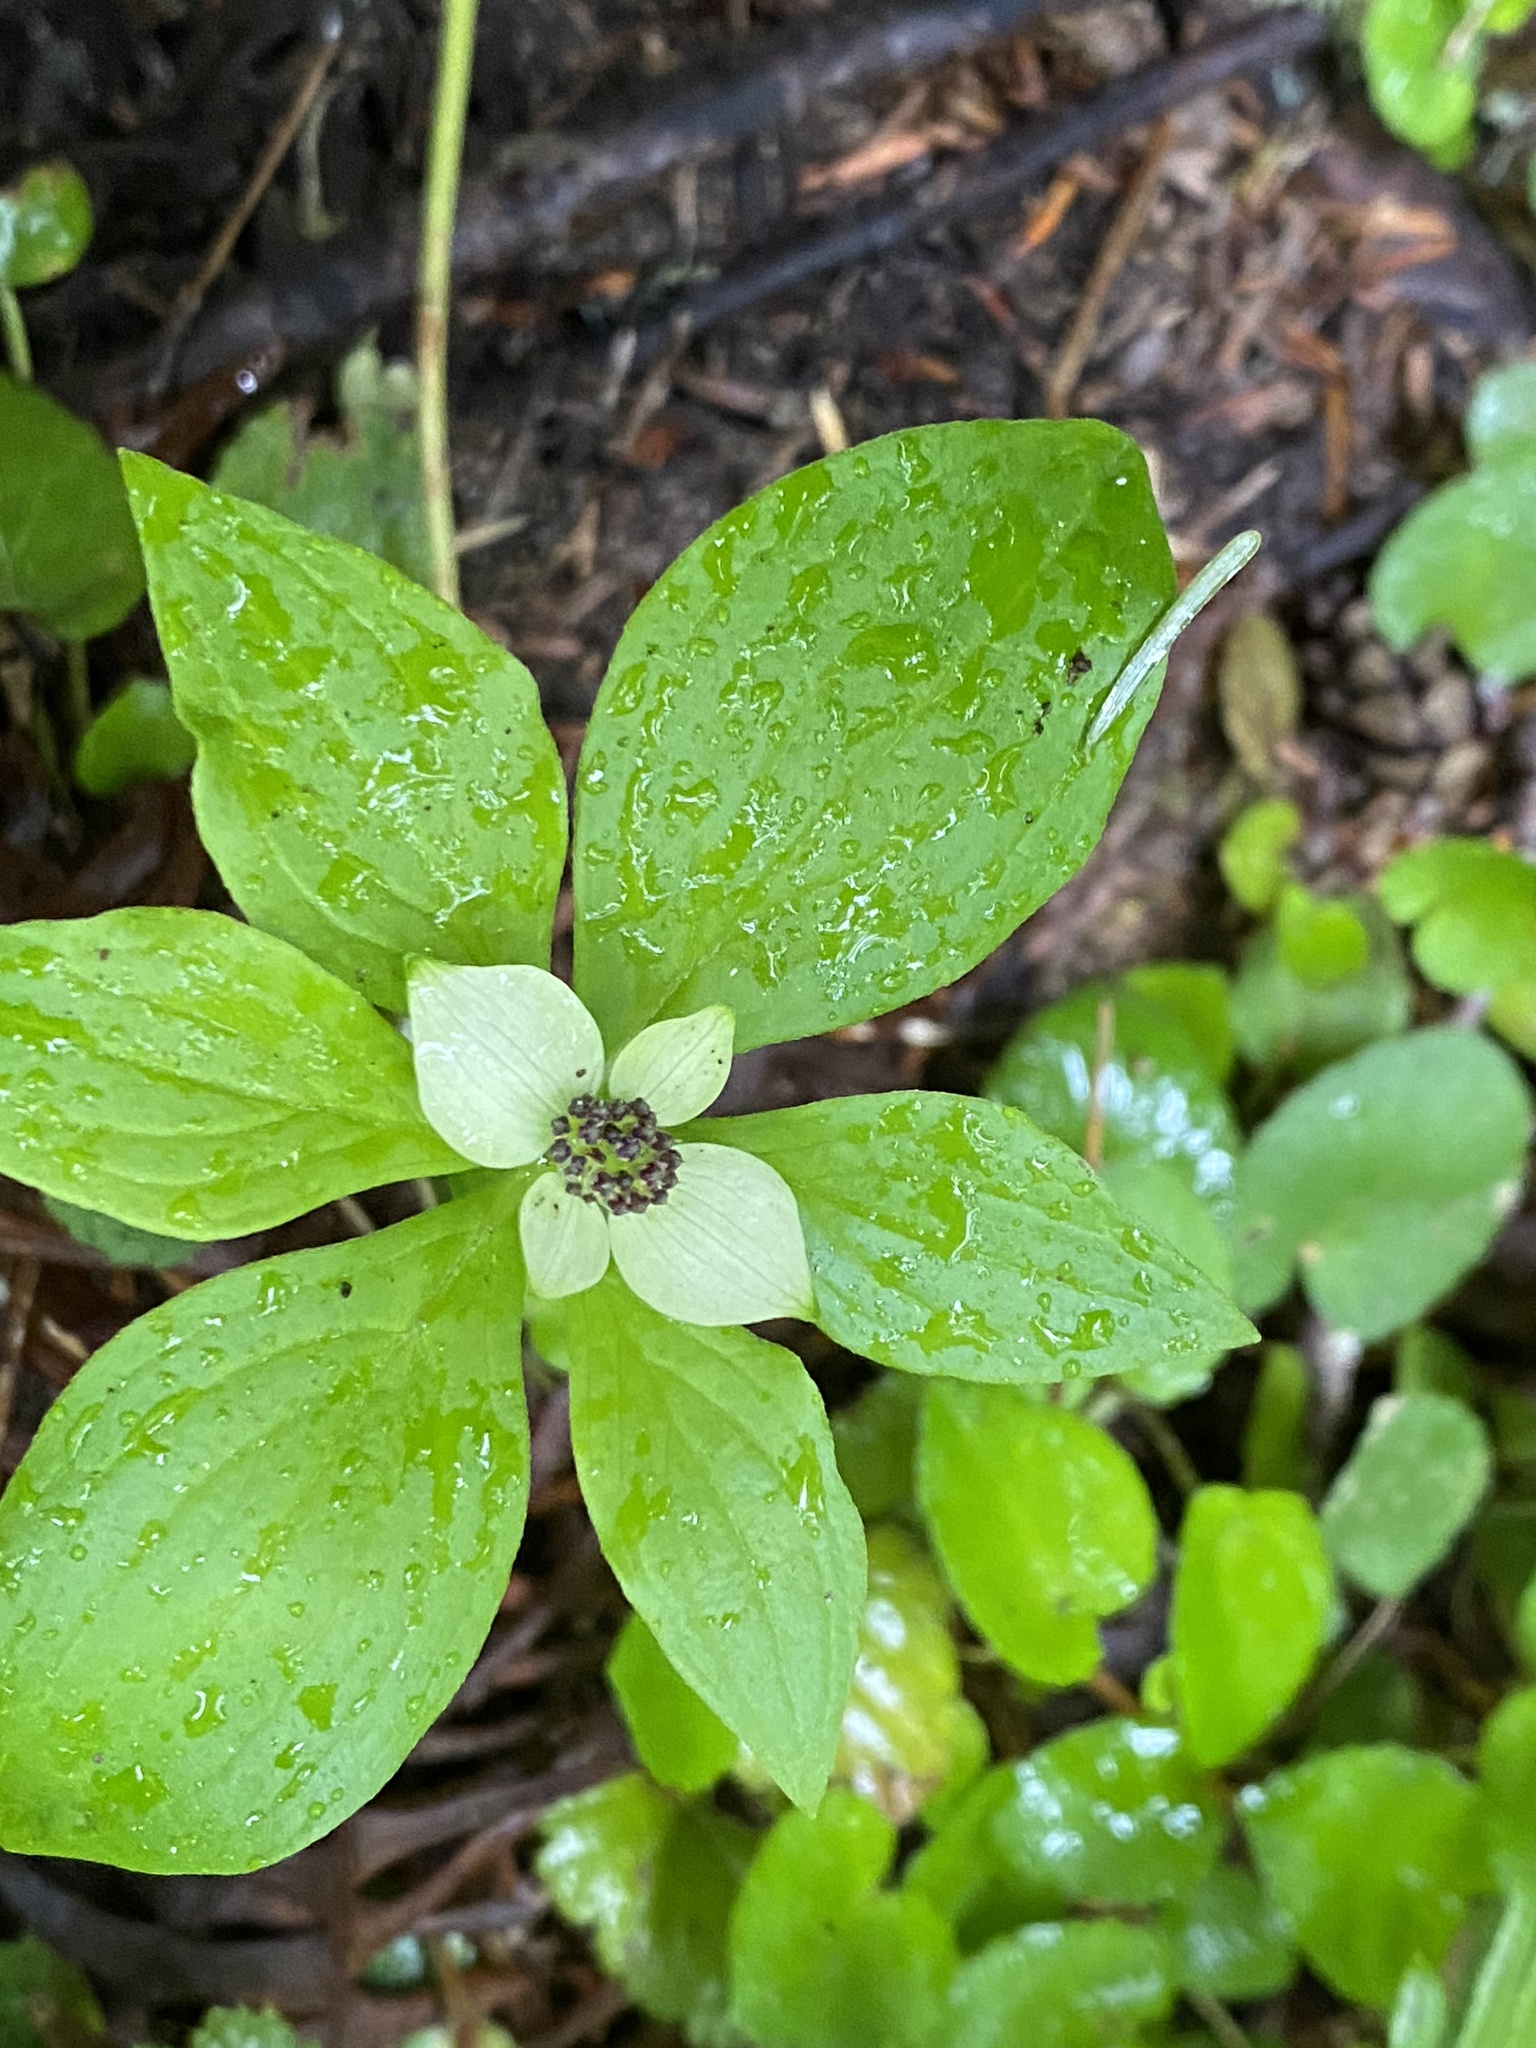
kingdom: Plantae
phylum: Tracheophyta
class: Magnoliopsida
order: Cornales
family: Cornaceae
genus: Cornus
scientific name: Cornus unalaschkensis
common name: Alaska bunchberry
